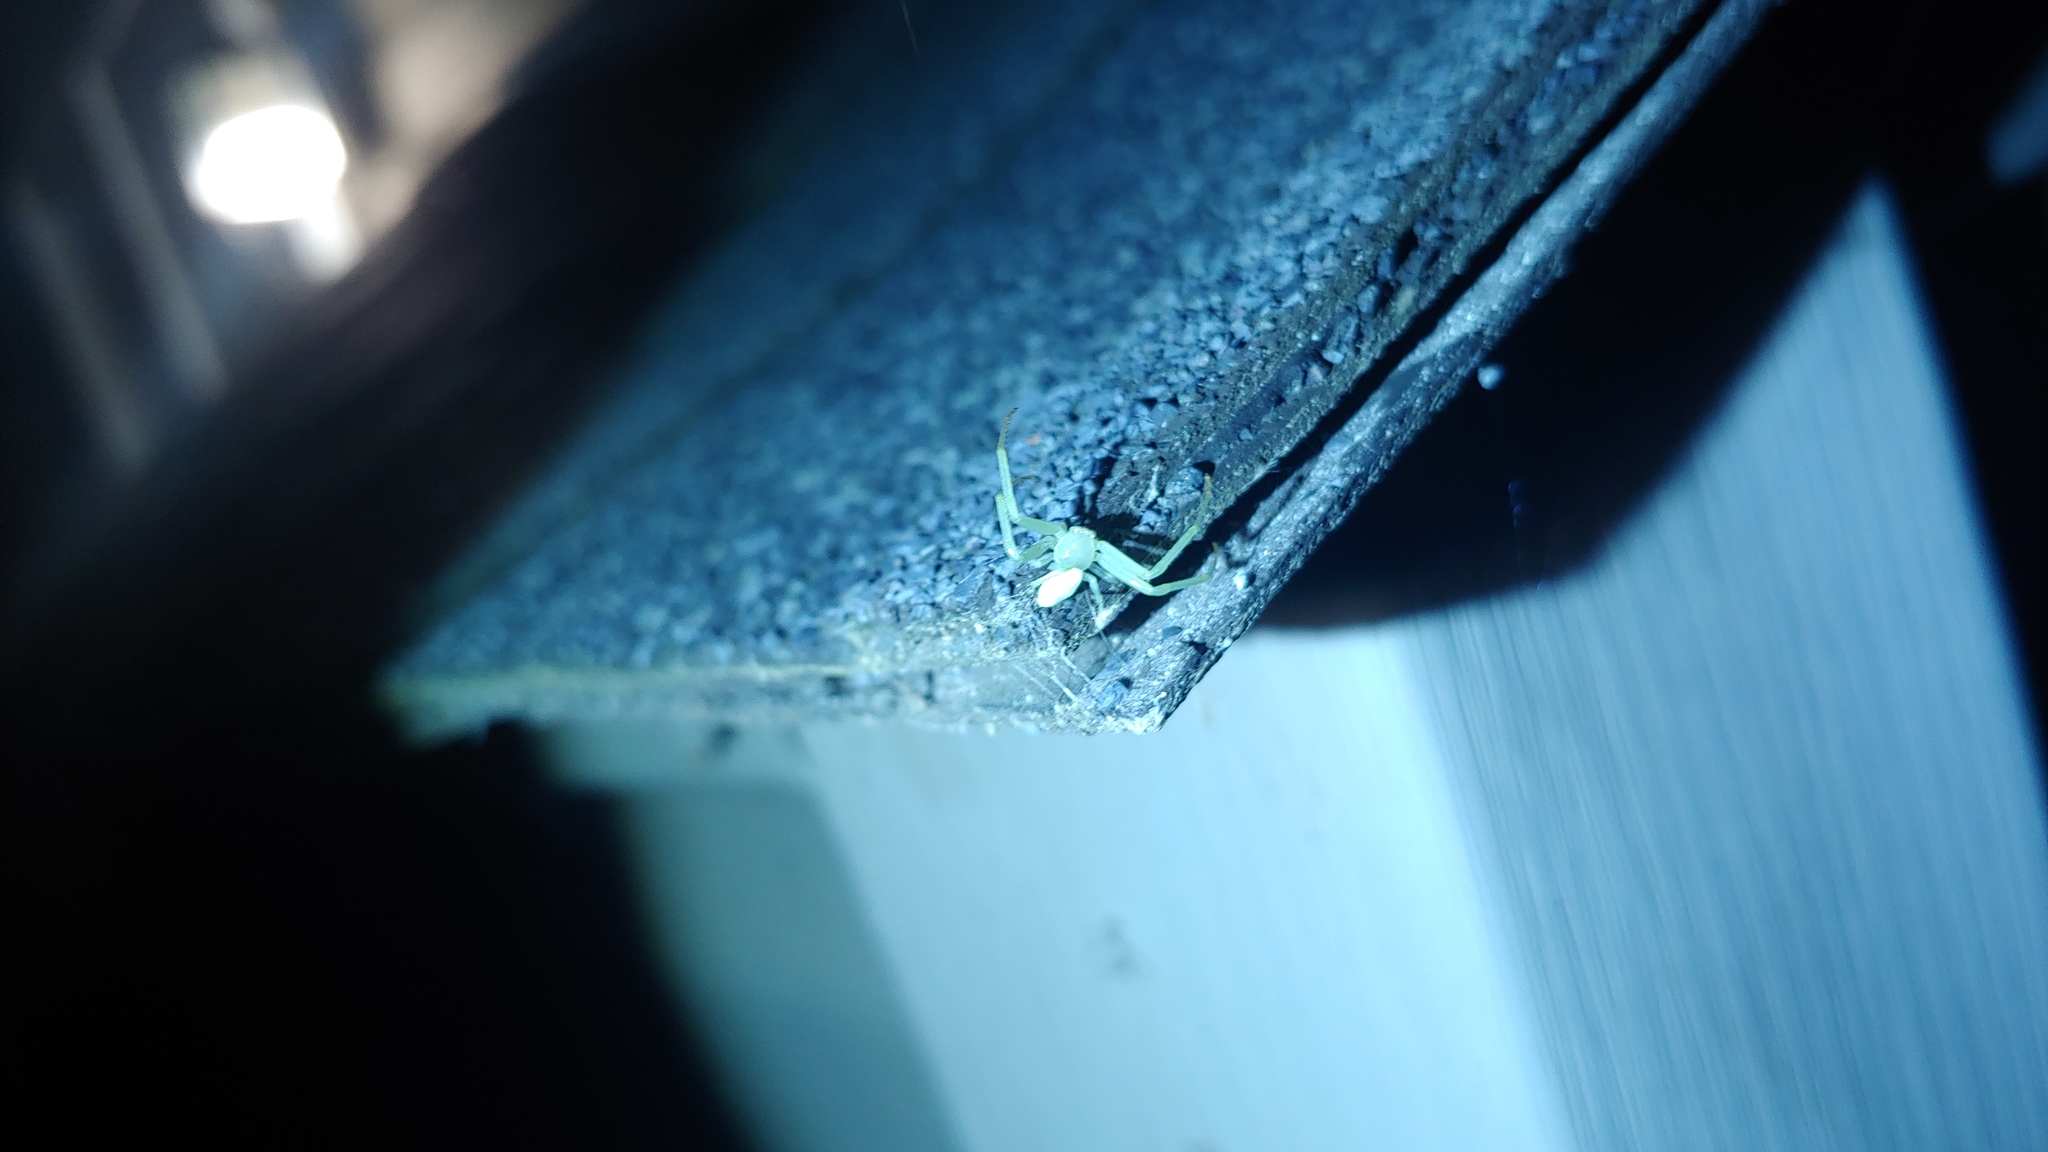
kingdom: Animalia
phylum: Arthropoda
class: Arachnida
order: Araneae
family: Thomisidae
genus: Misumessus
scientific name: Misumessus oblongus
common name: American green crab spider
